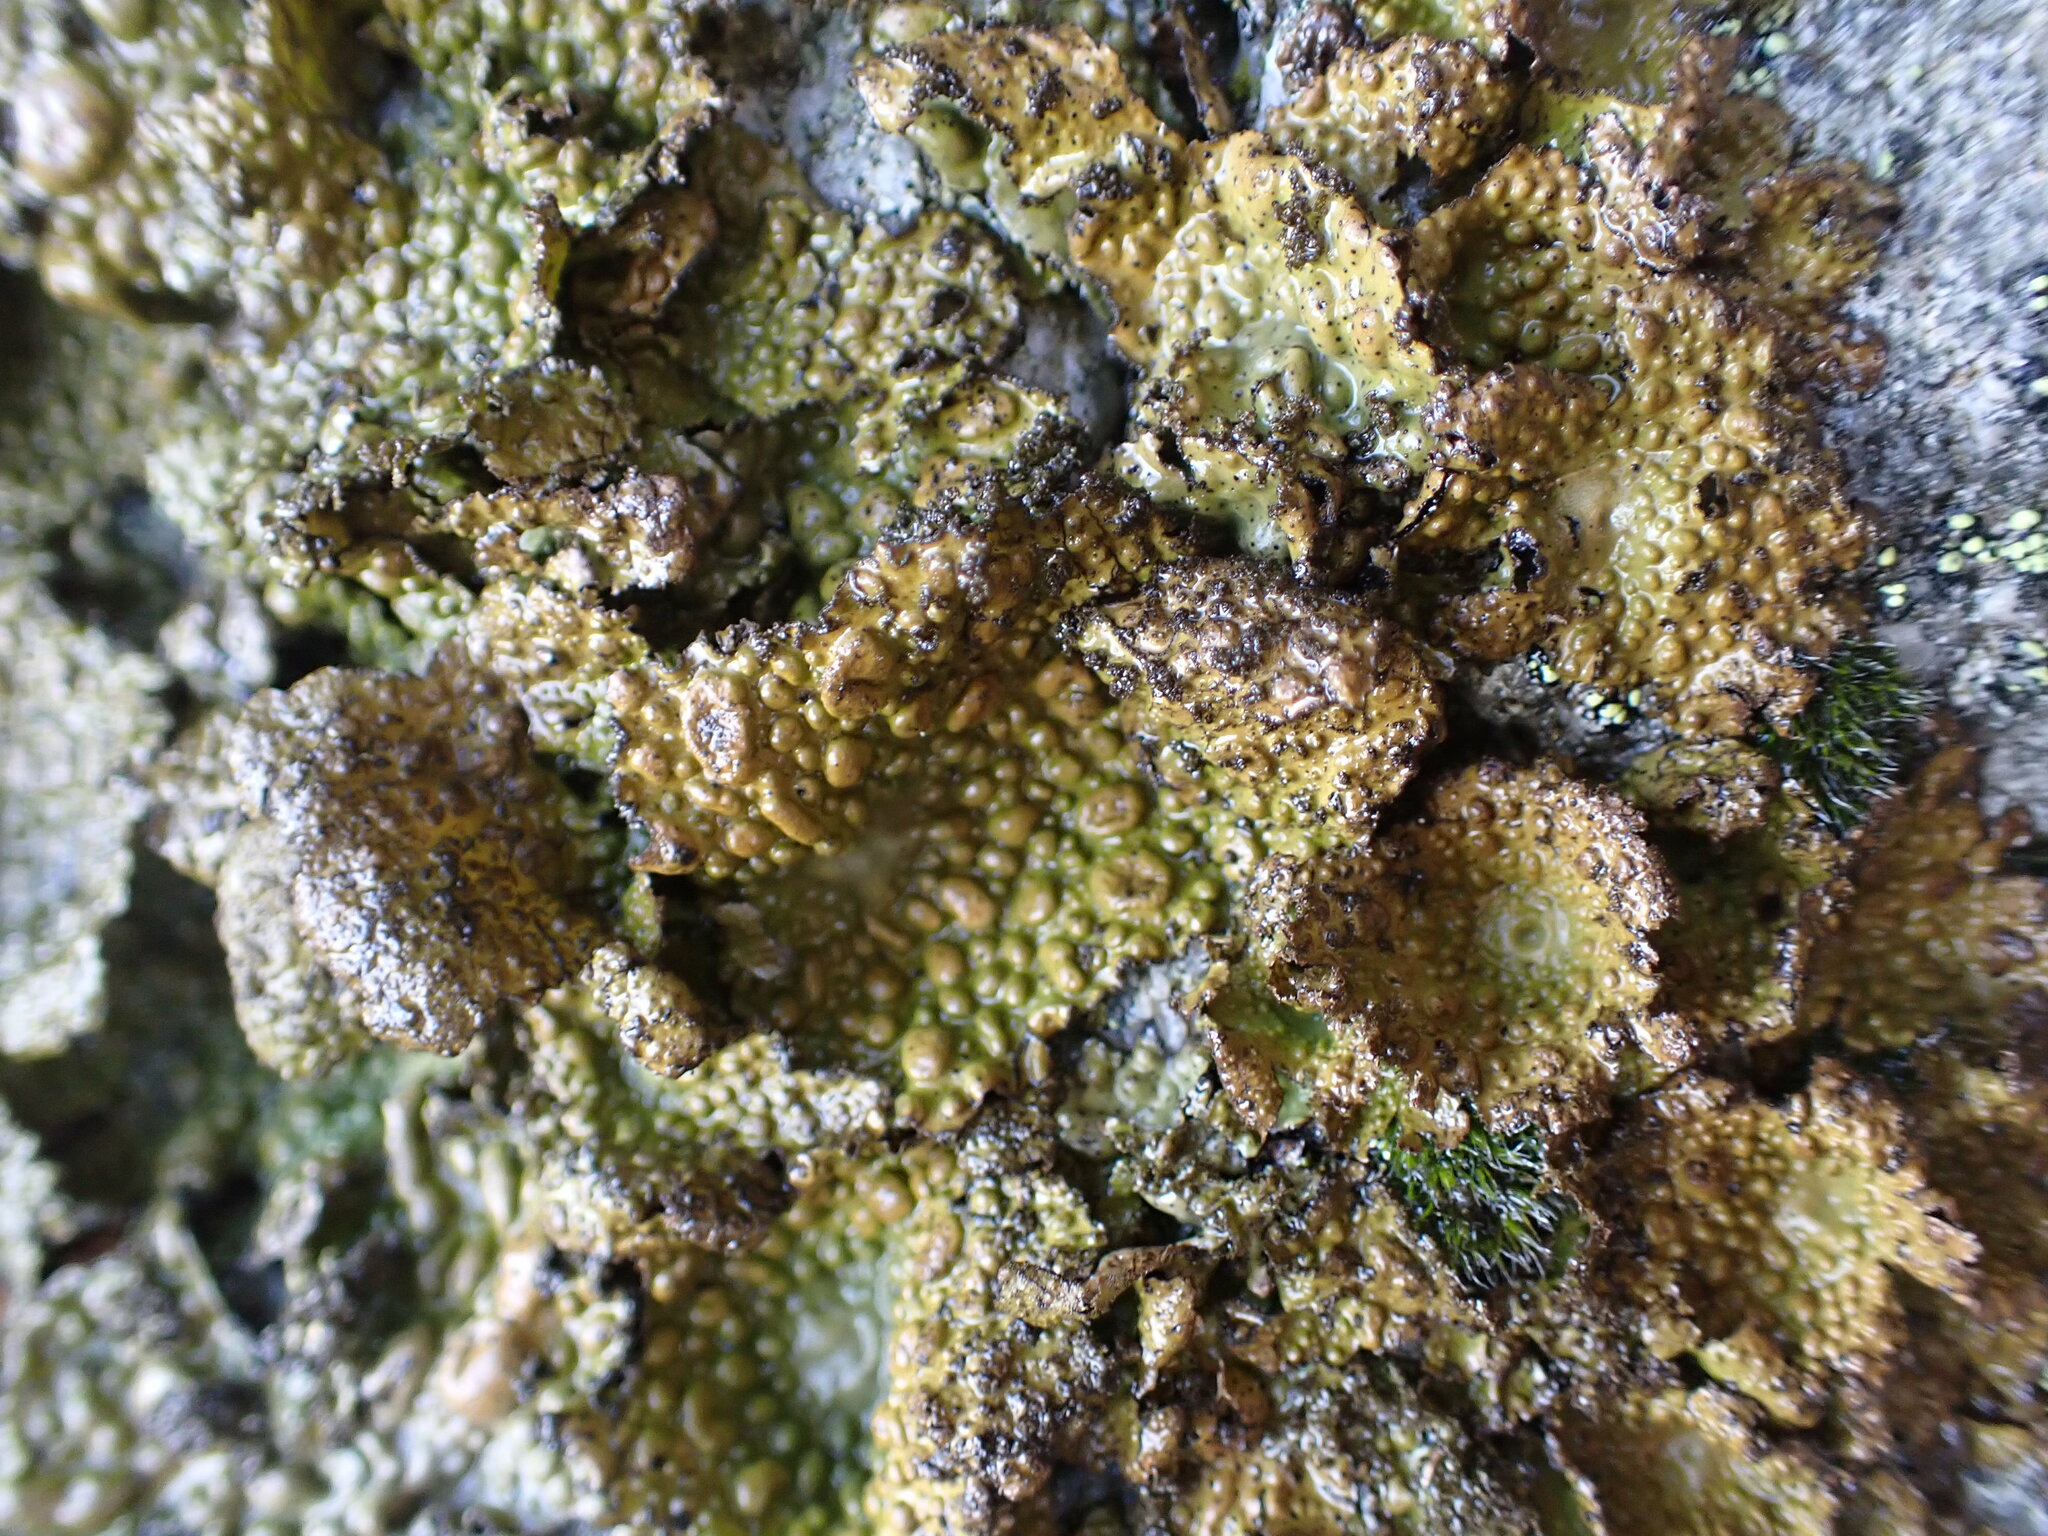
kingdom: Fungi
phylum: Ascomycota
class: Lecanoromycetes
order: Umbilicariales
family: Umbilicariaceae
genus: Lasallia
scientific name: Lasallia pustulata
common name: Blistered toadskin lichen
